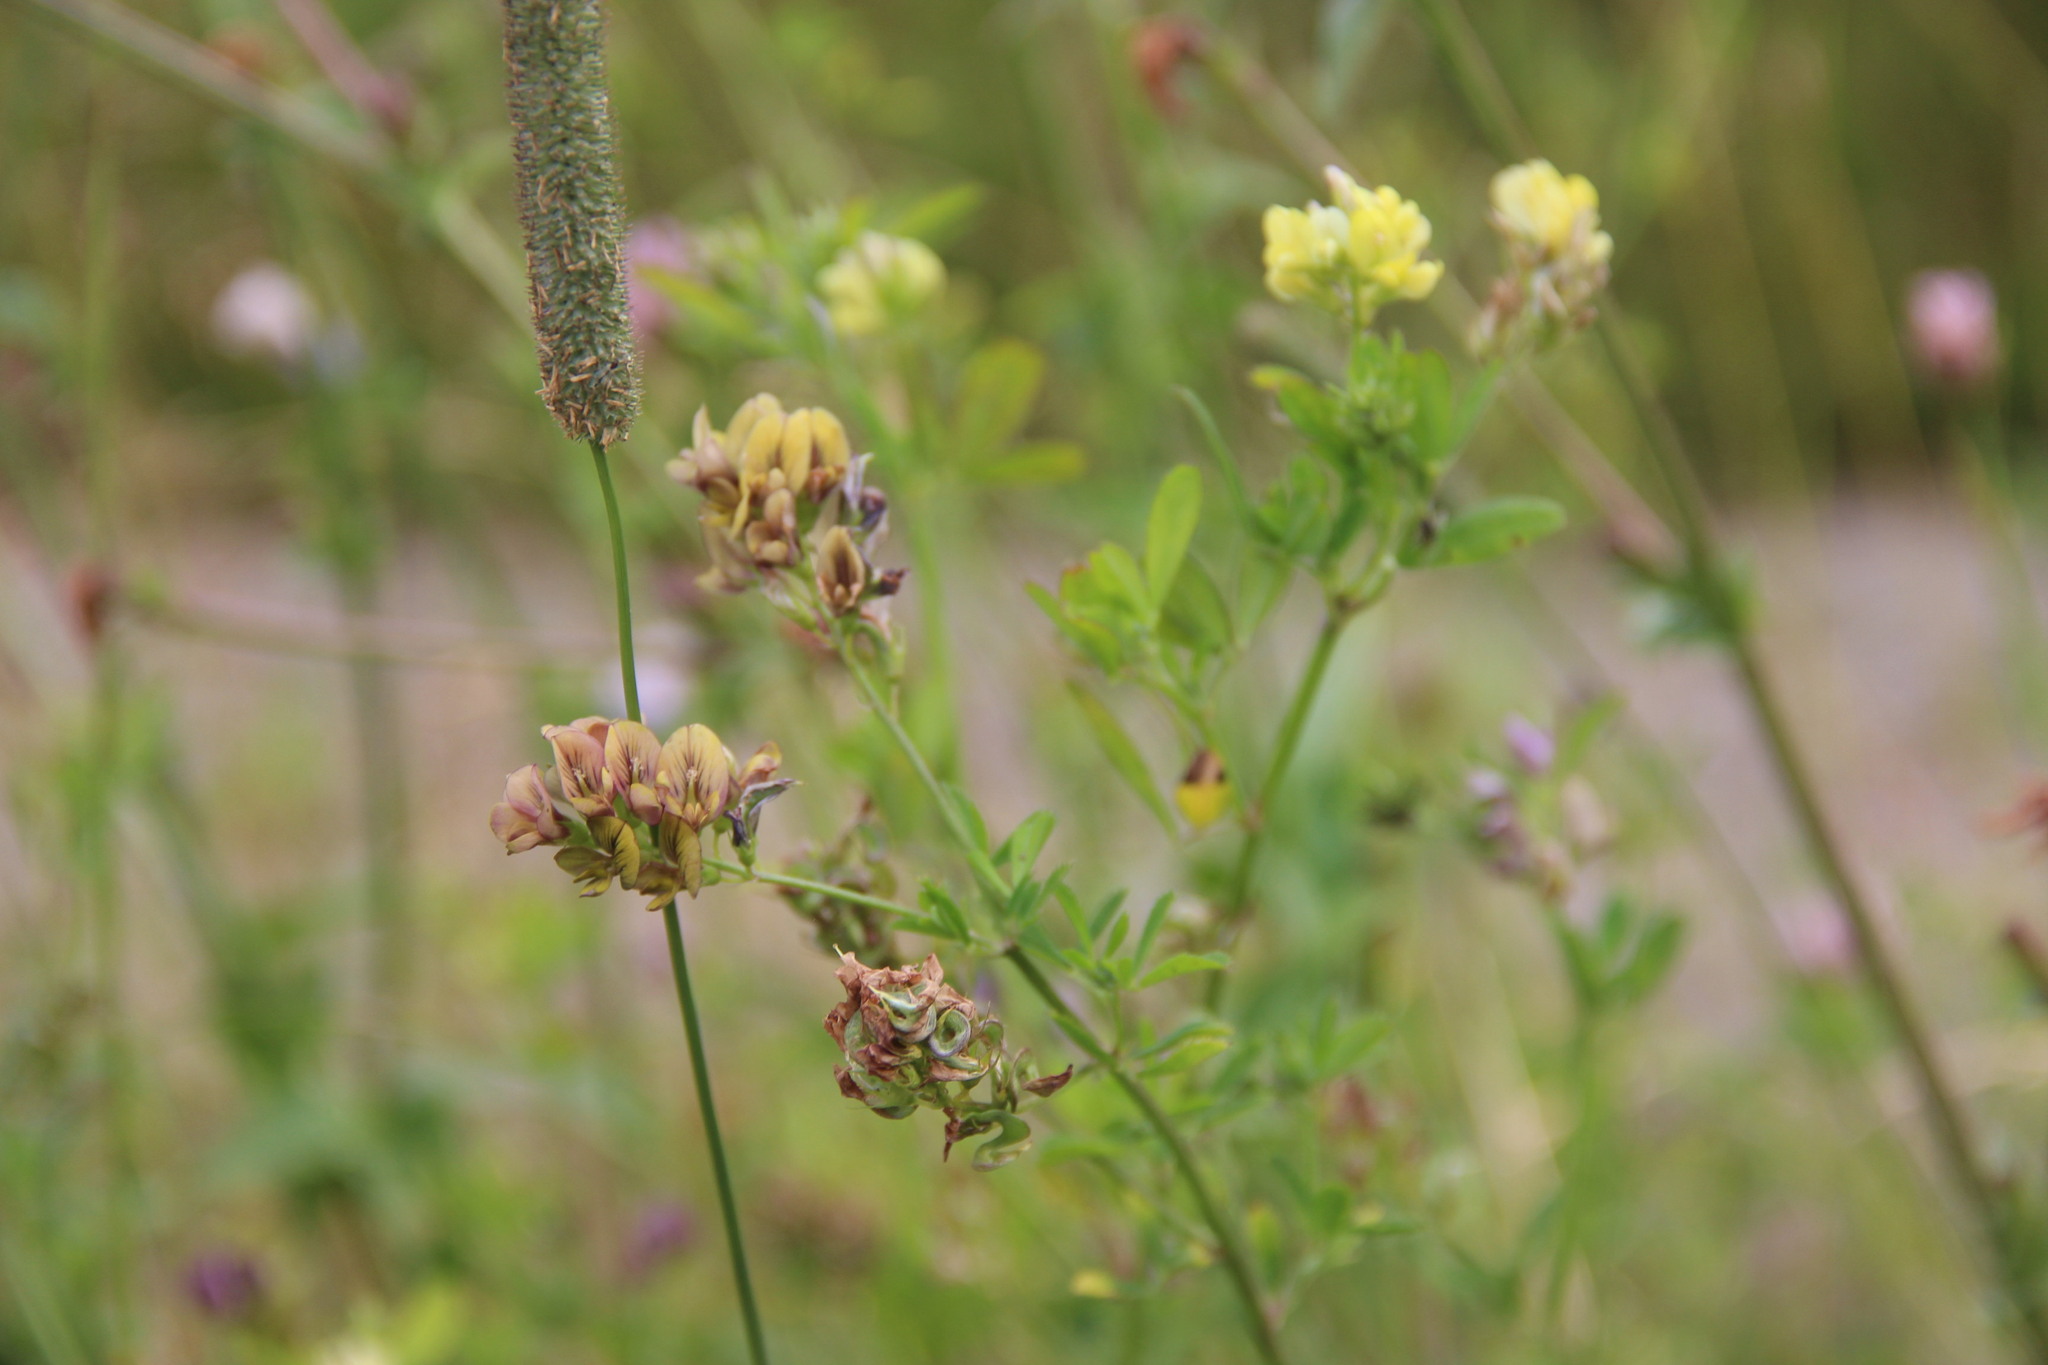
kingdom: Plantae
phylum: Tracheophyta
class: Magnoliopsida
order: Fabales
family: Fabaceae
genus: Medicago
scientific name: Medicago varia
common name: Sand lucerne
